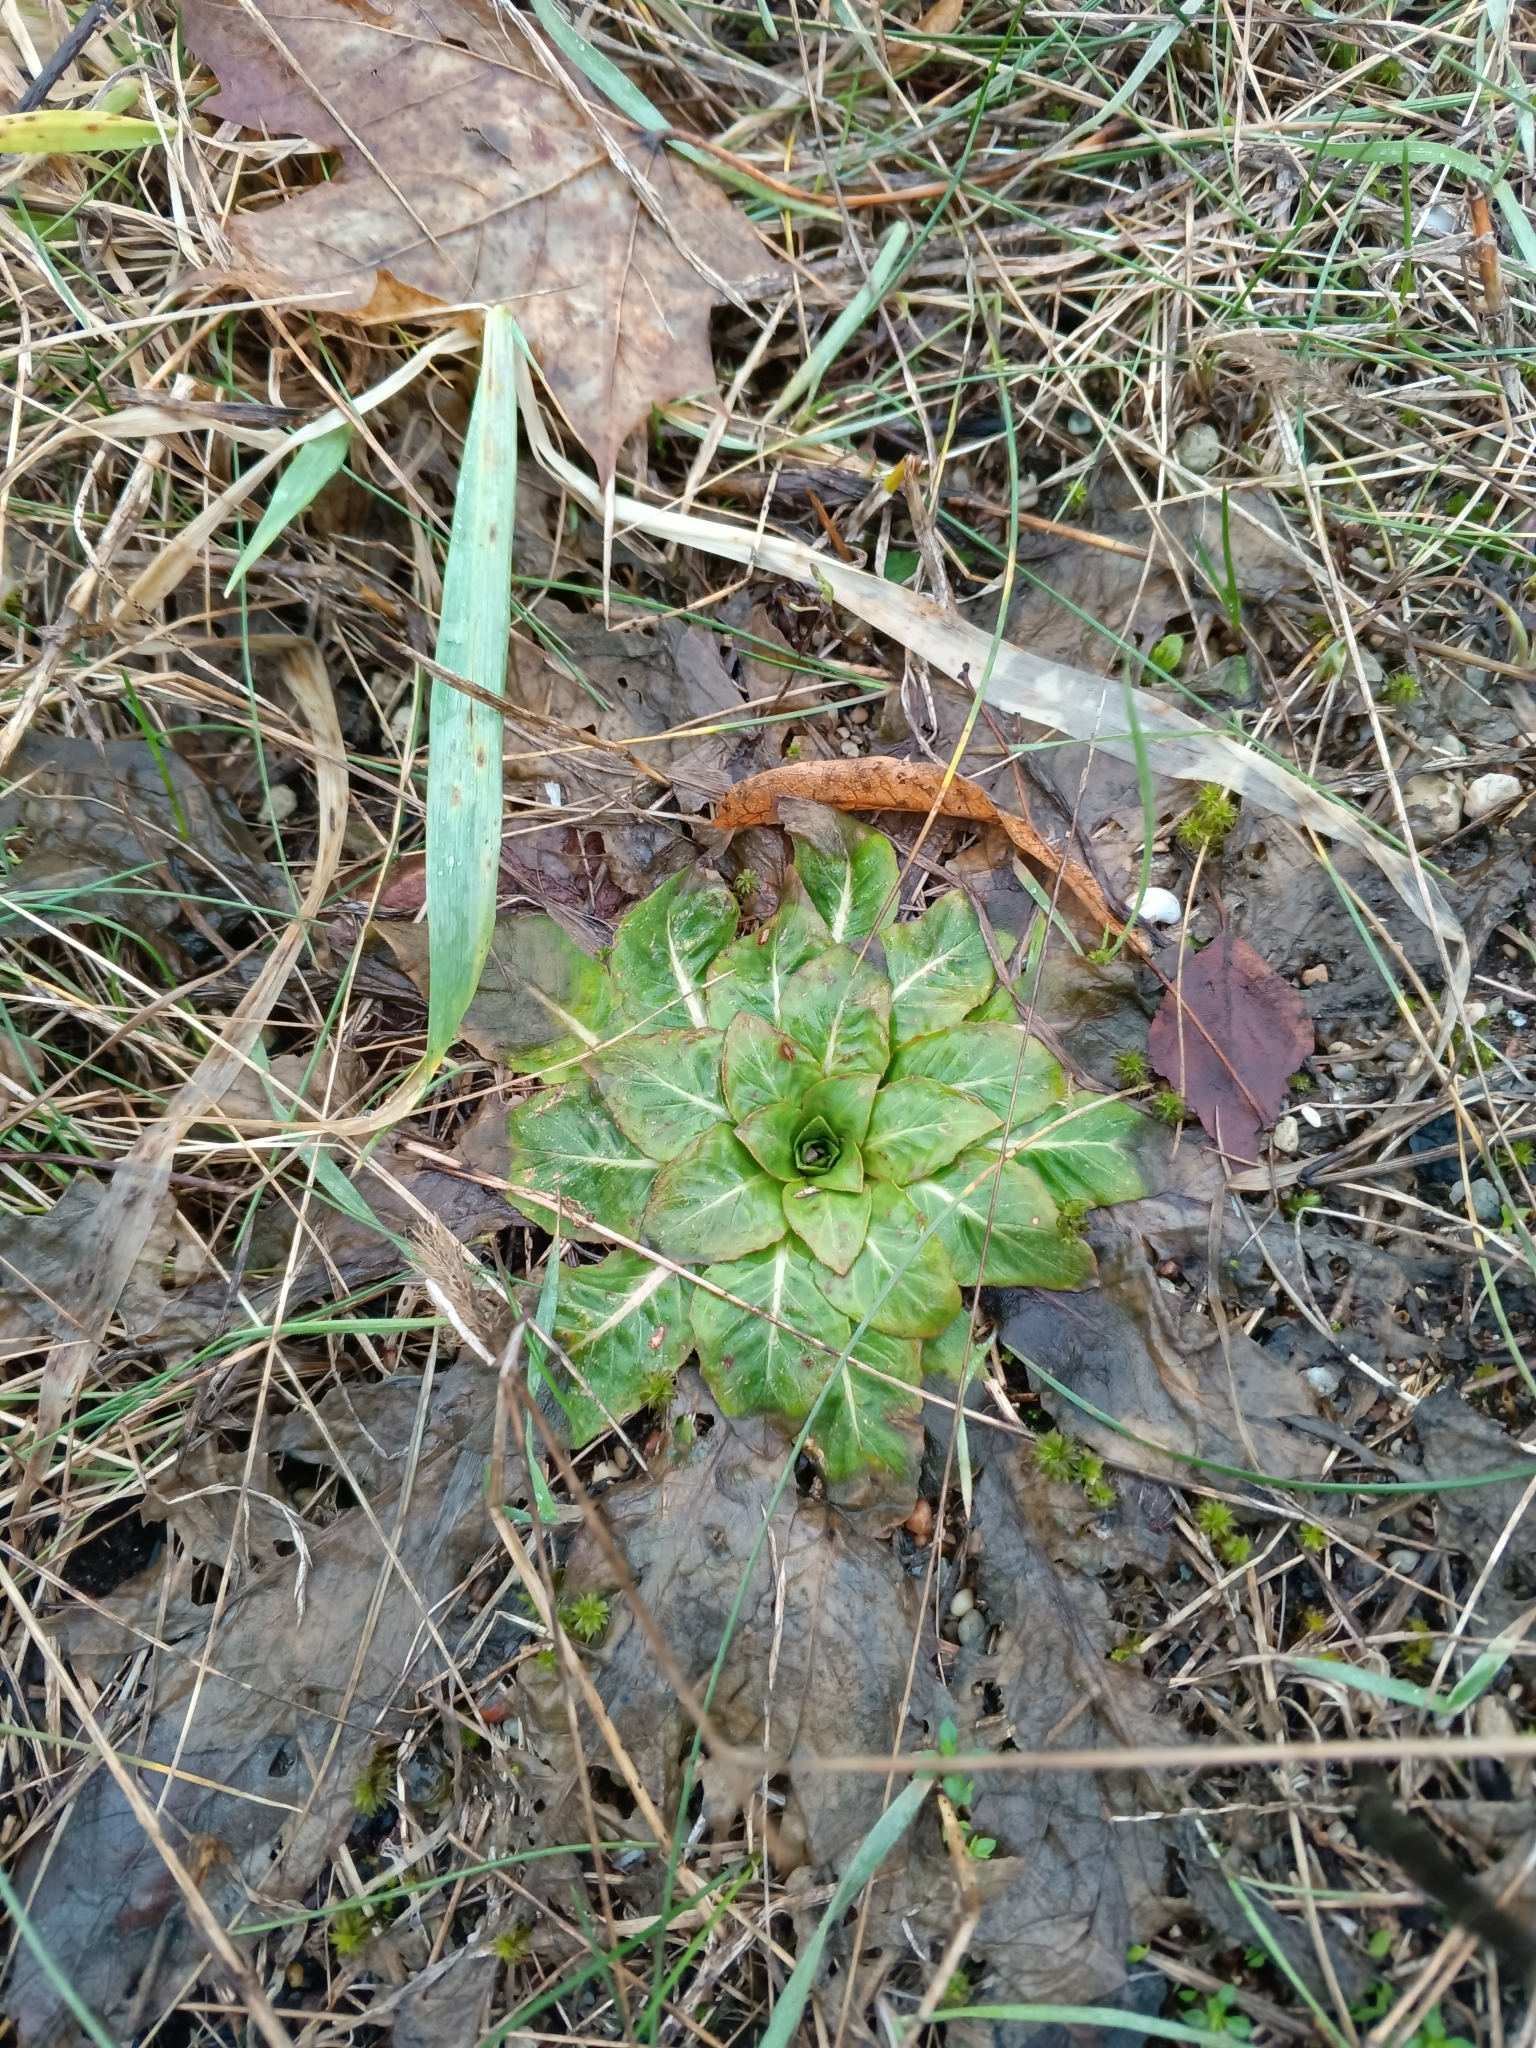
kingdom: Plantae
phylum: Tracheophyta
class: Magnoliopsida
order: Myrtales
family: Onagraceae
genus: Oenothera
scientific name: Oenothera
